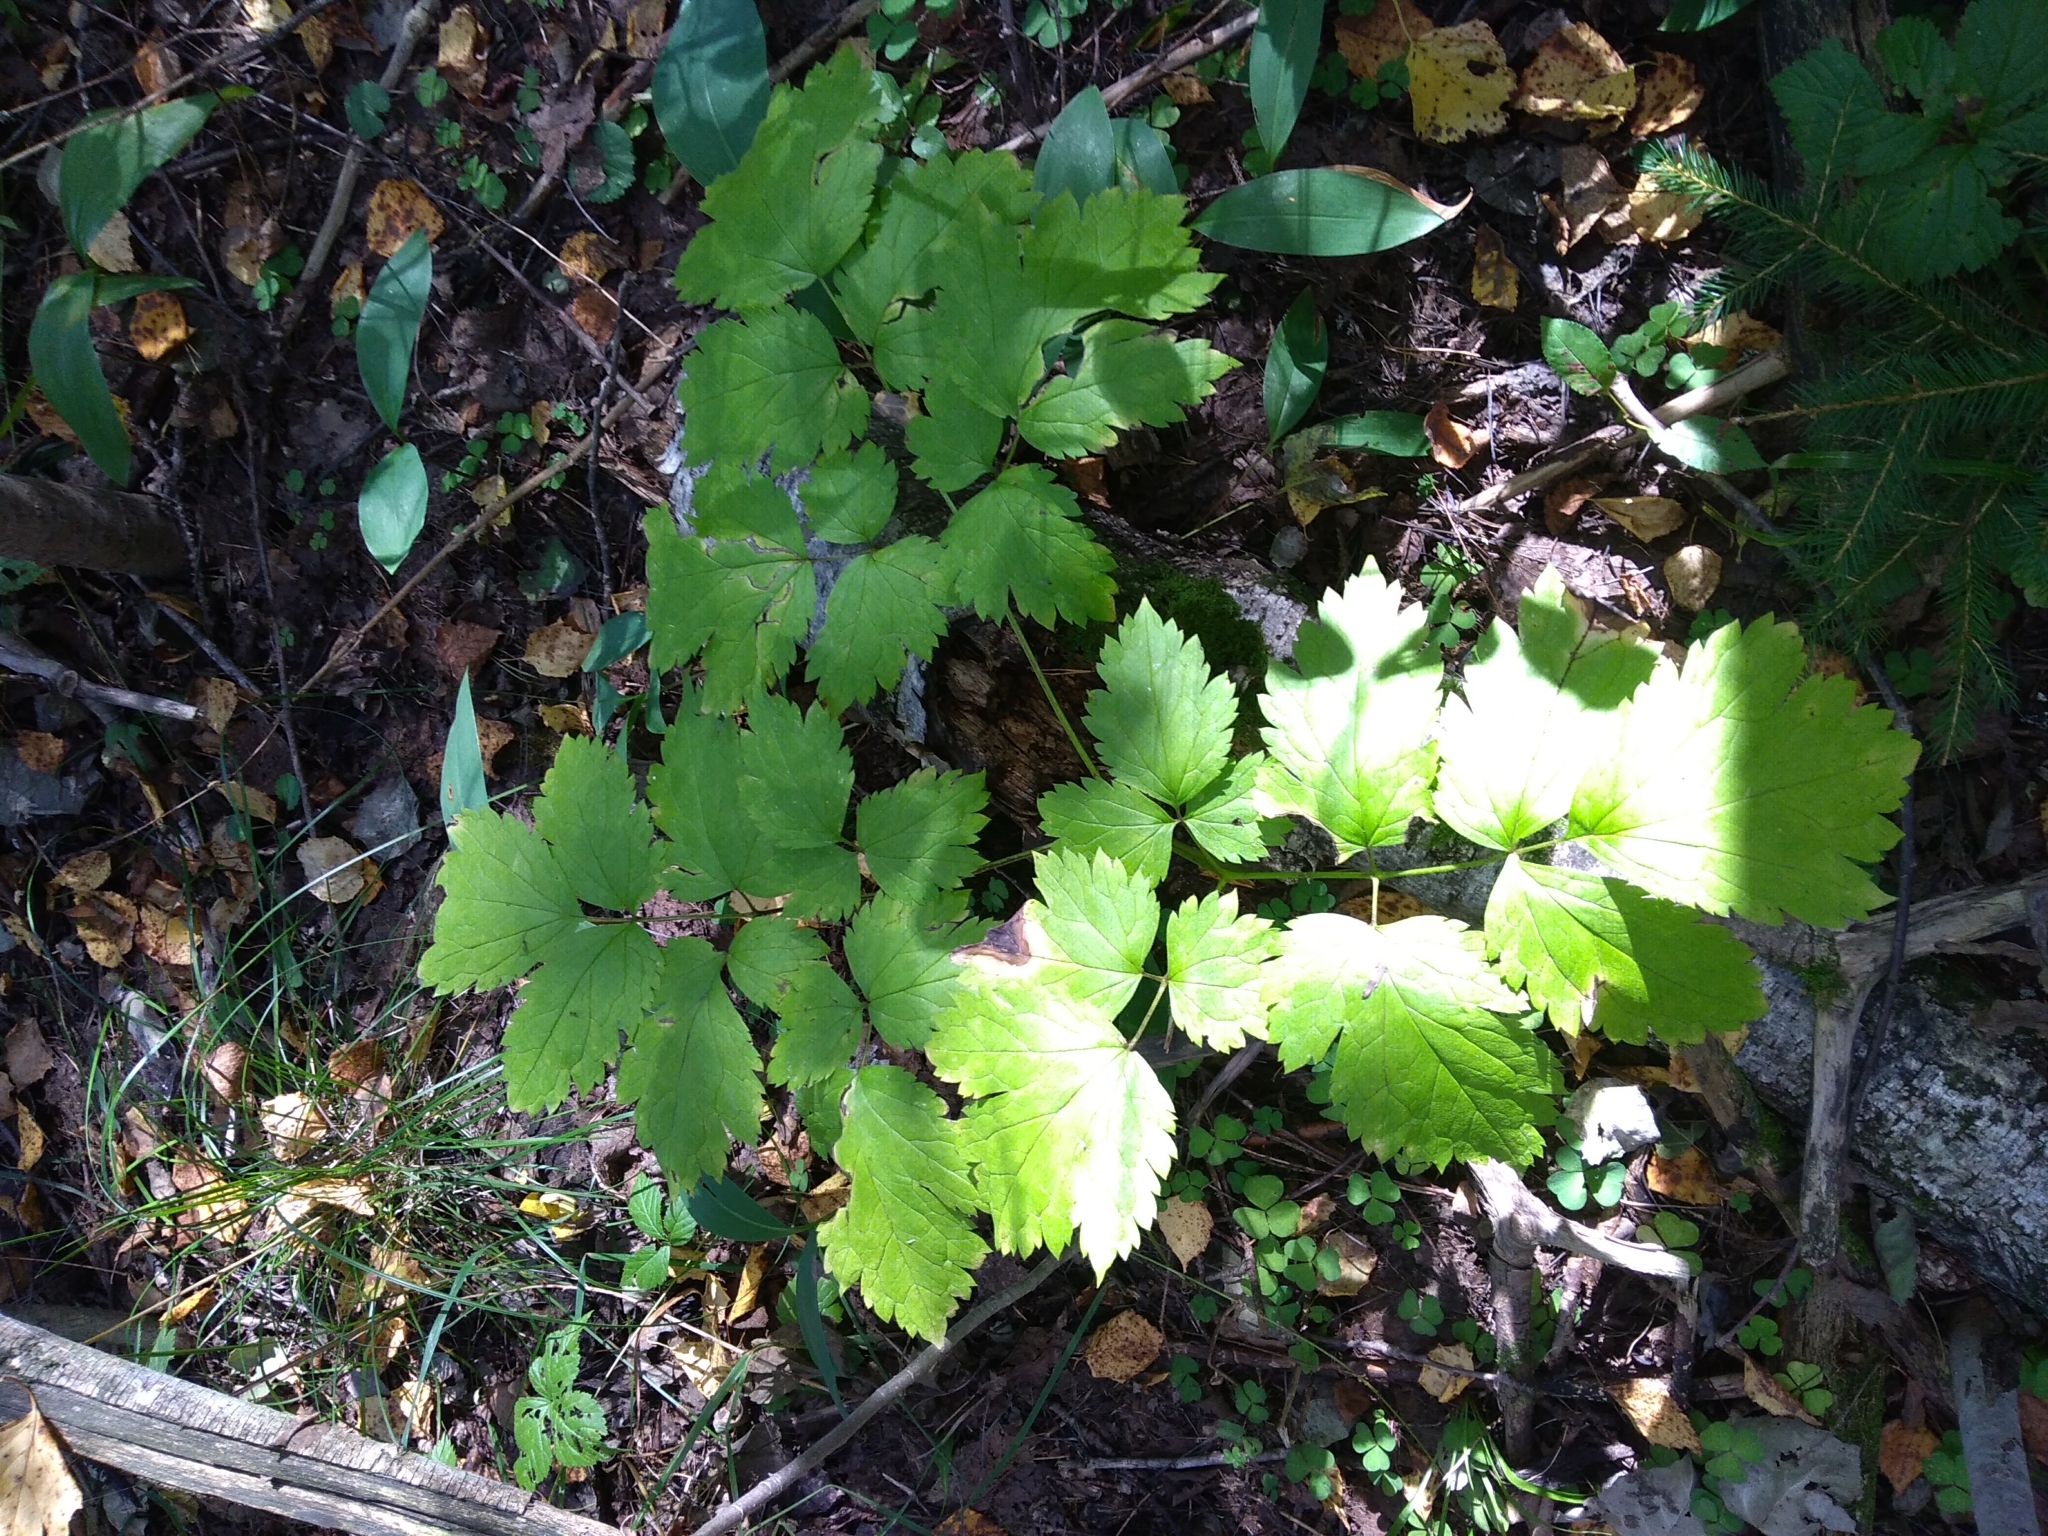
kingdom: Plantae
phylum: Tracheophyta
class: Magnoliopsida
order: Ranunculales
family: Ranunculaceae
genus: Actaea
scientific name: Actaea spicata
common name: Baneberry
